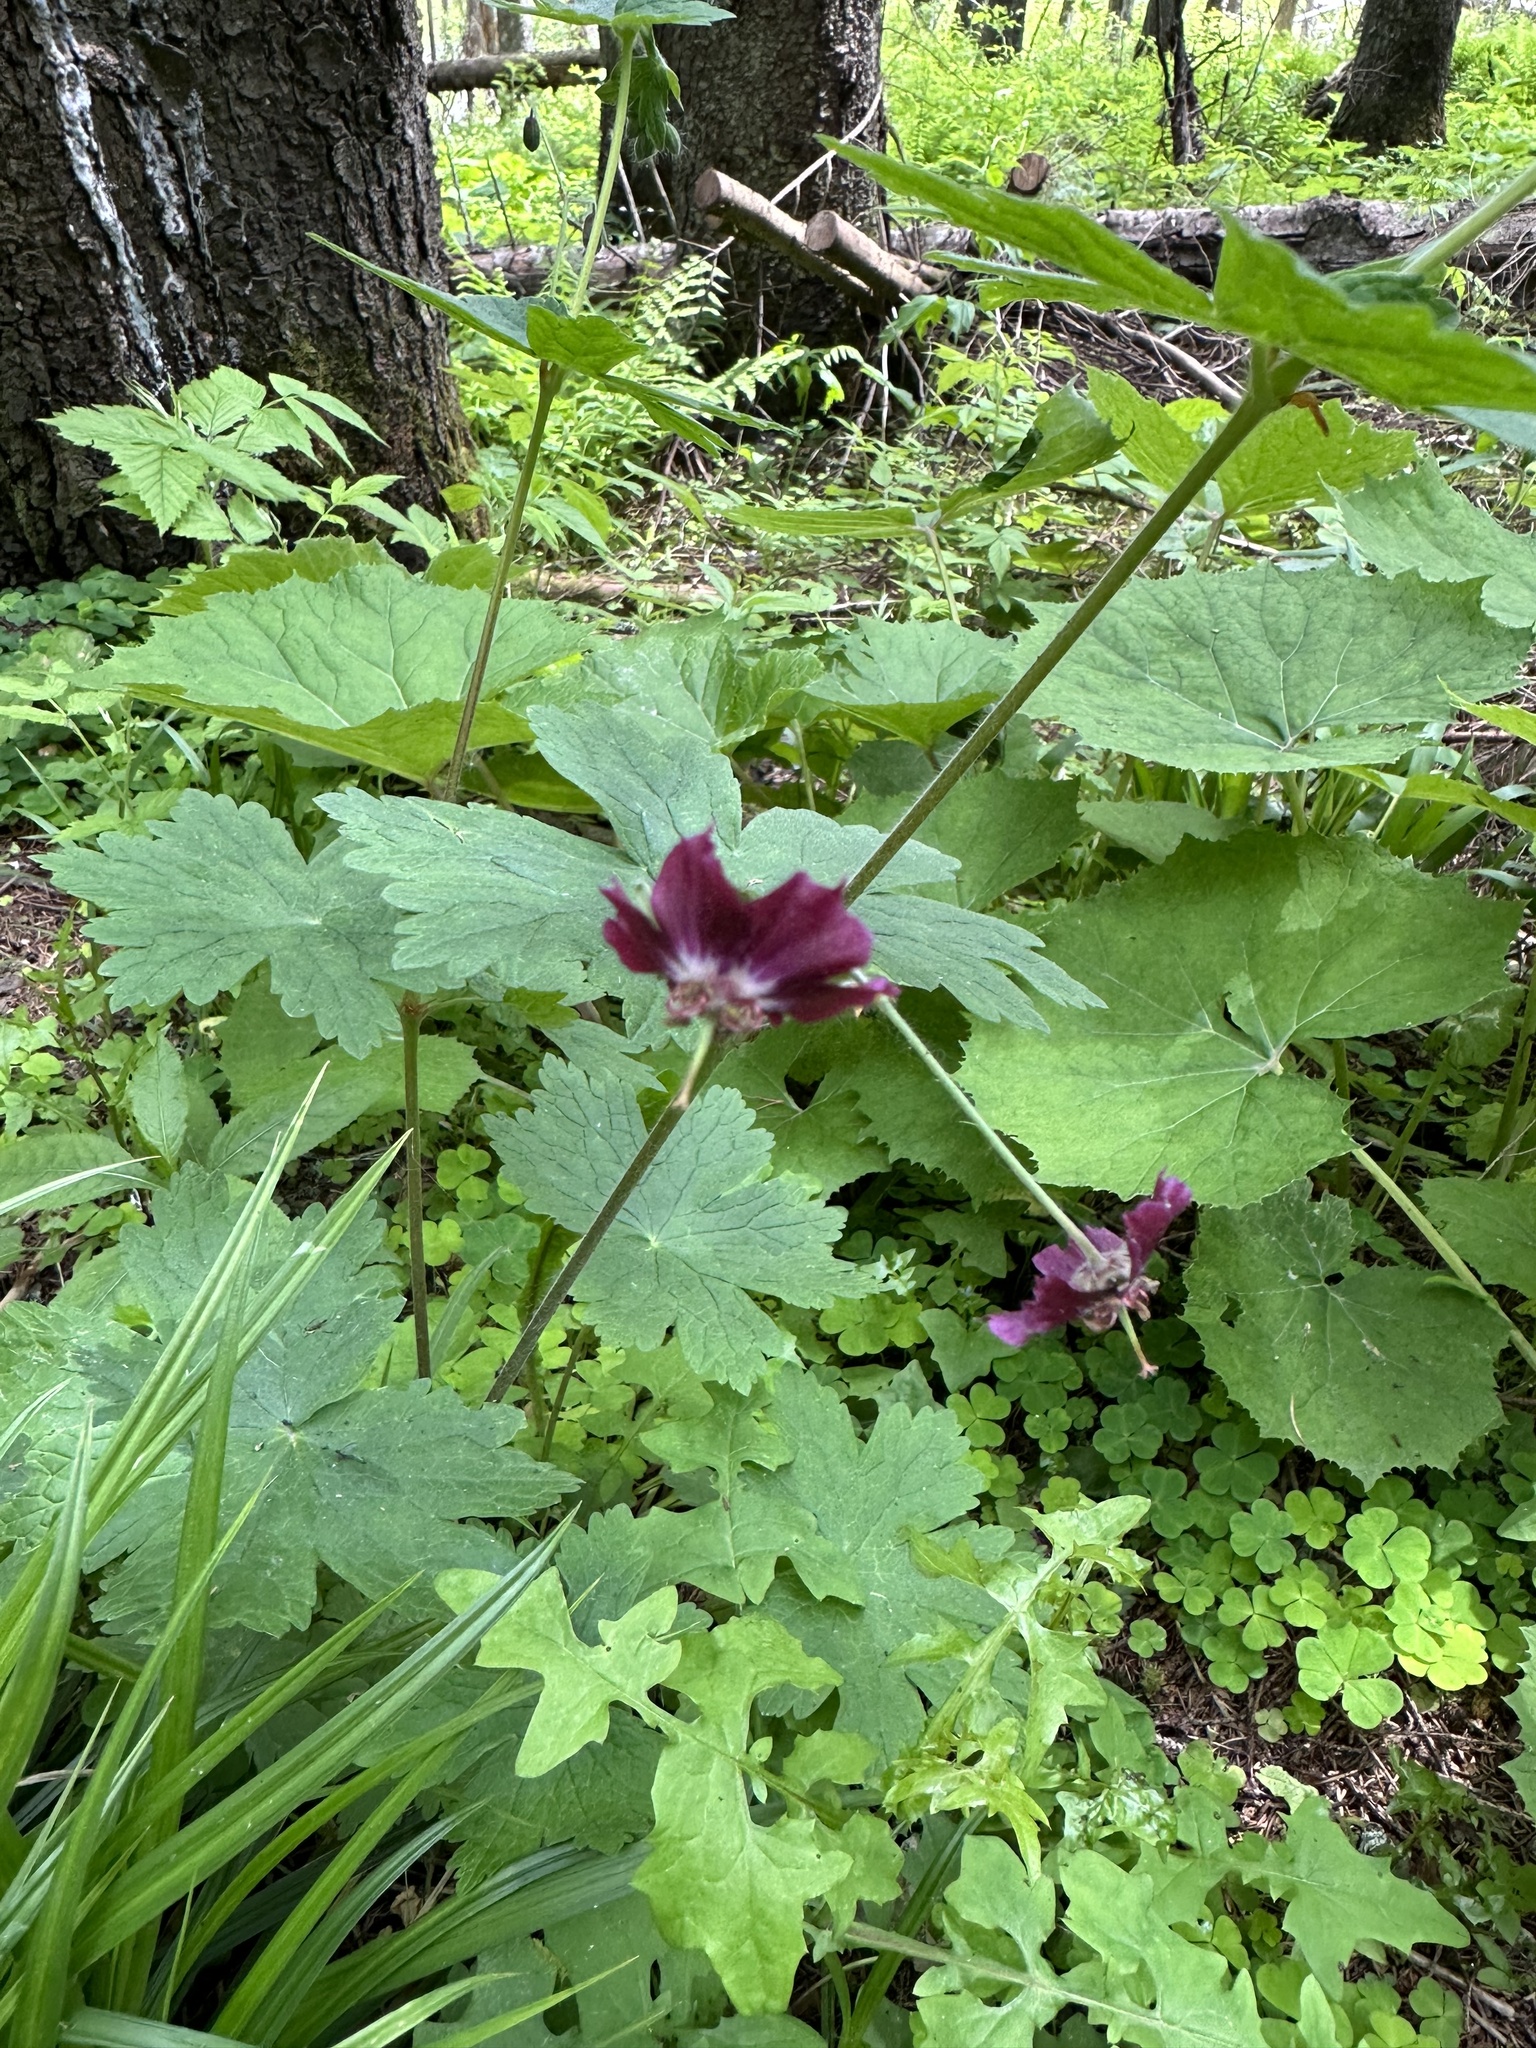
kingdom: Plantae
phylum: Tracheophyta
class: Magnoliopsida
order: Geraniales
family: Geraniaceae
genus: Geranium
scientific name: Geranium phaeum
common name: Dusky crane's-bill
